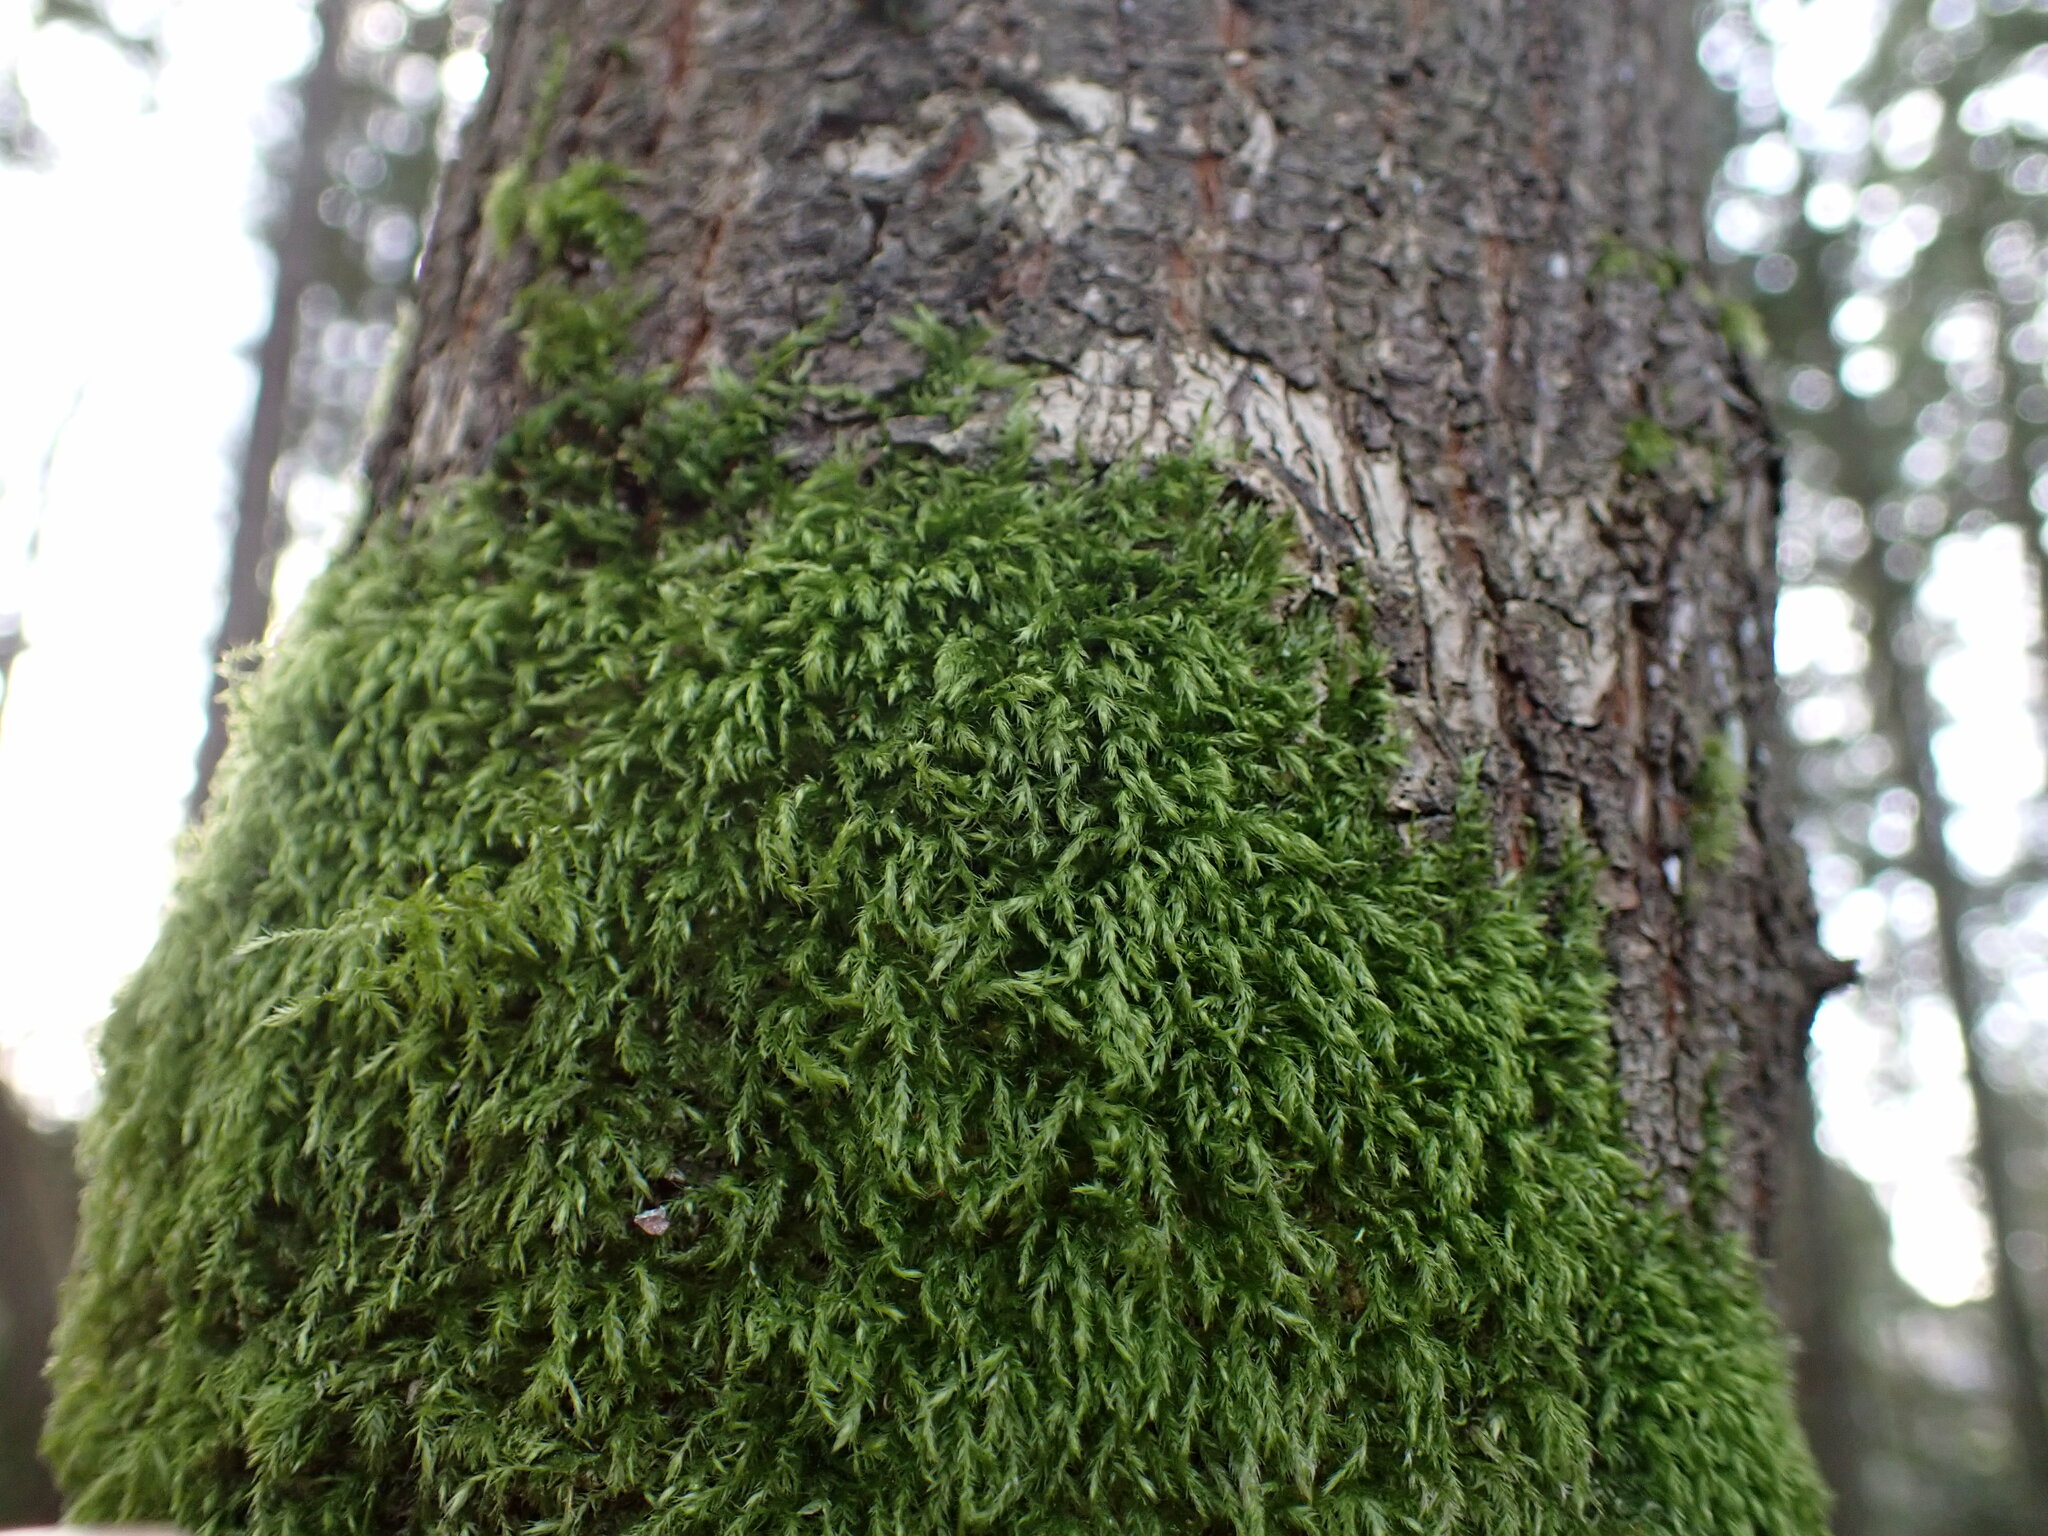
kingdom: Plantae
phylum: Bryophyta
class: Bryopsida
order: Hypnales
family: Lembophyllaceae
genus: Pseudisothecium
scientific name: Pseudisothecium stoloniferum
